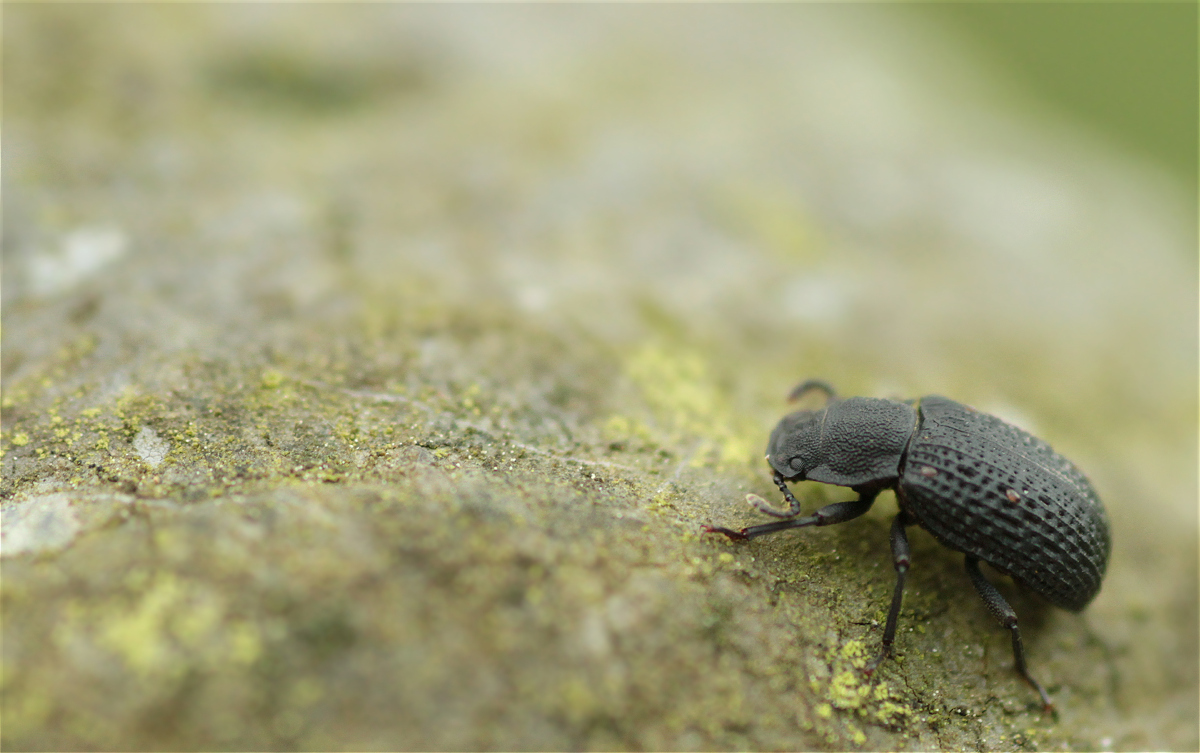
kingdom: Animalia
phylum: Arthropoda
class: Insecta
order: Coleoptera
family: Tenebrionidae
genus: Bolitophagus
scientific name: Bolitophagus reticulatus
